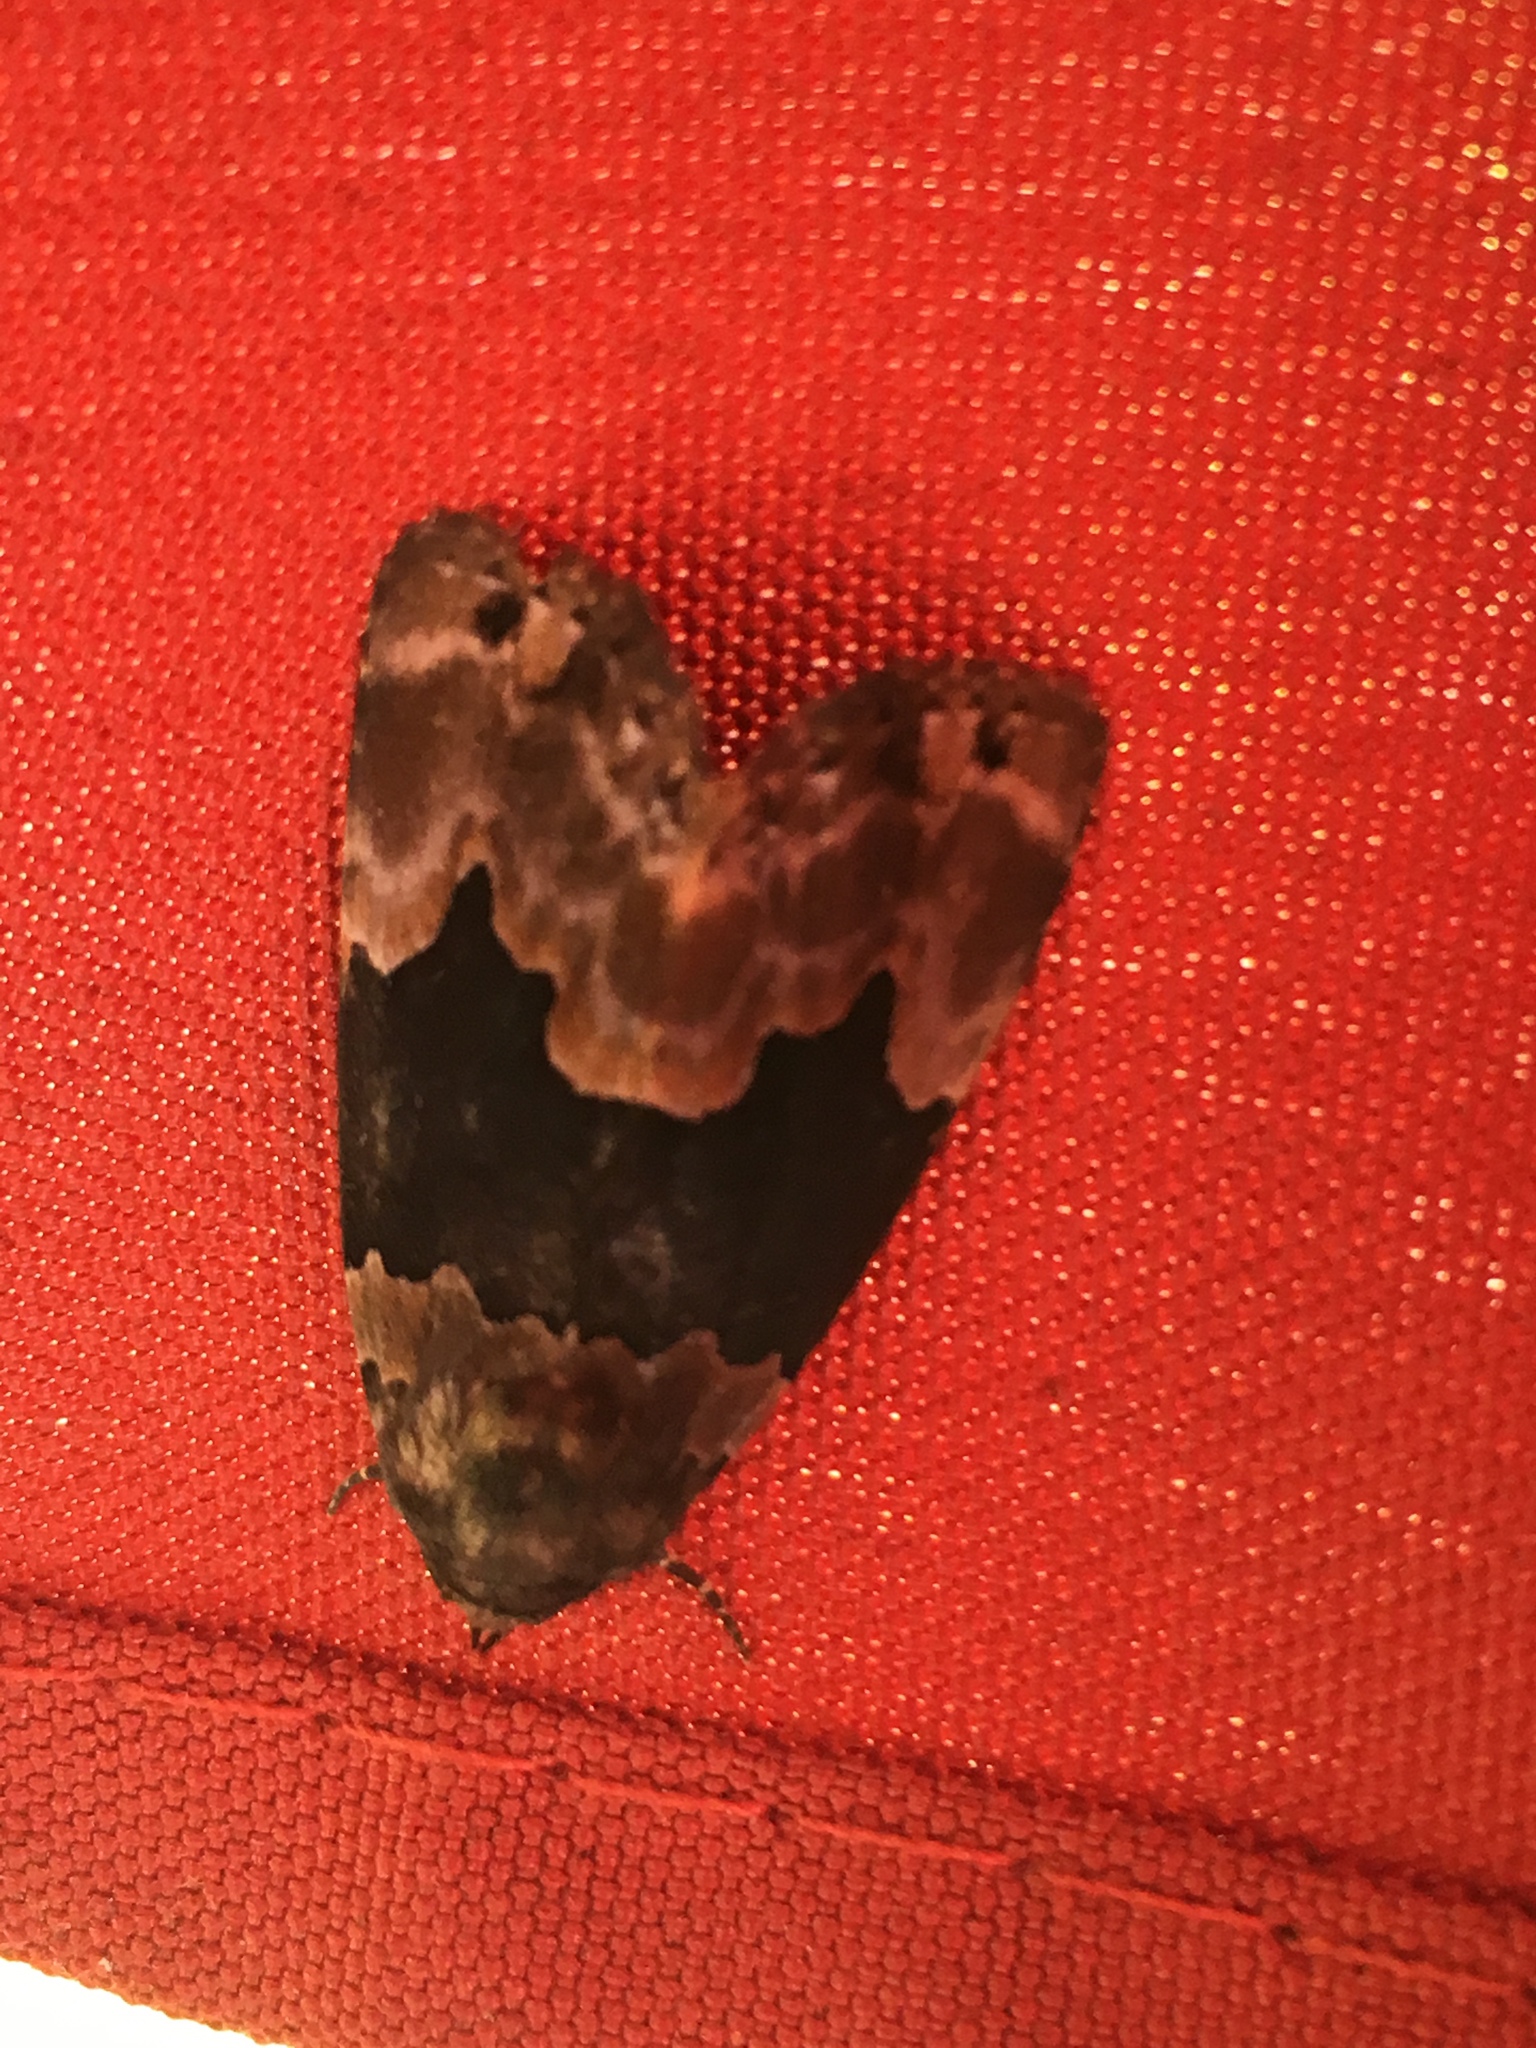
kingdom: Animalia
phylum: Arthropoda
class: Insecta
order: Lepidoptera
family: Erebidae
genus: Dinumma
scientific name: Dinumma deponens
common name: Purplish moth
